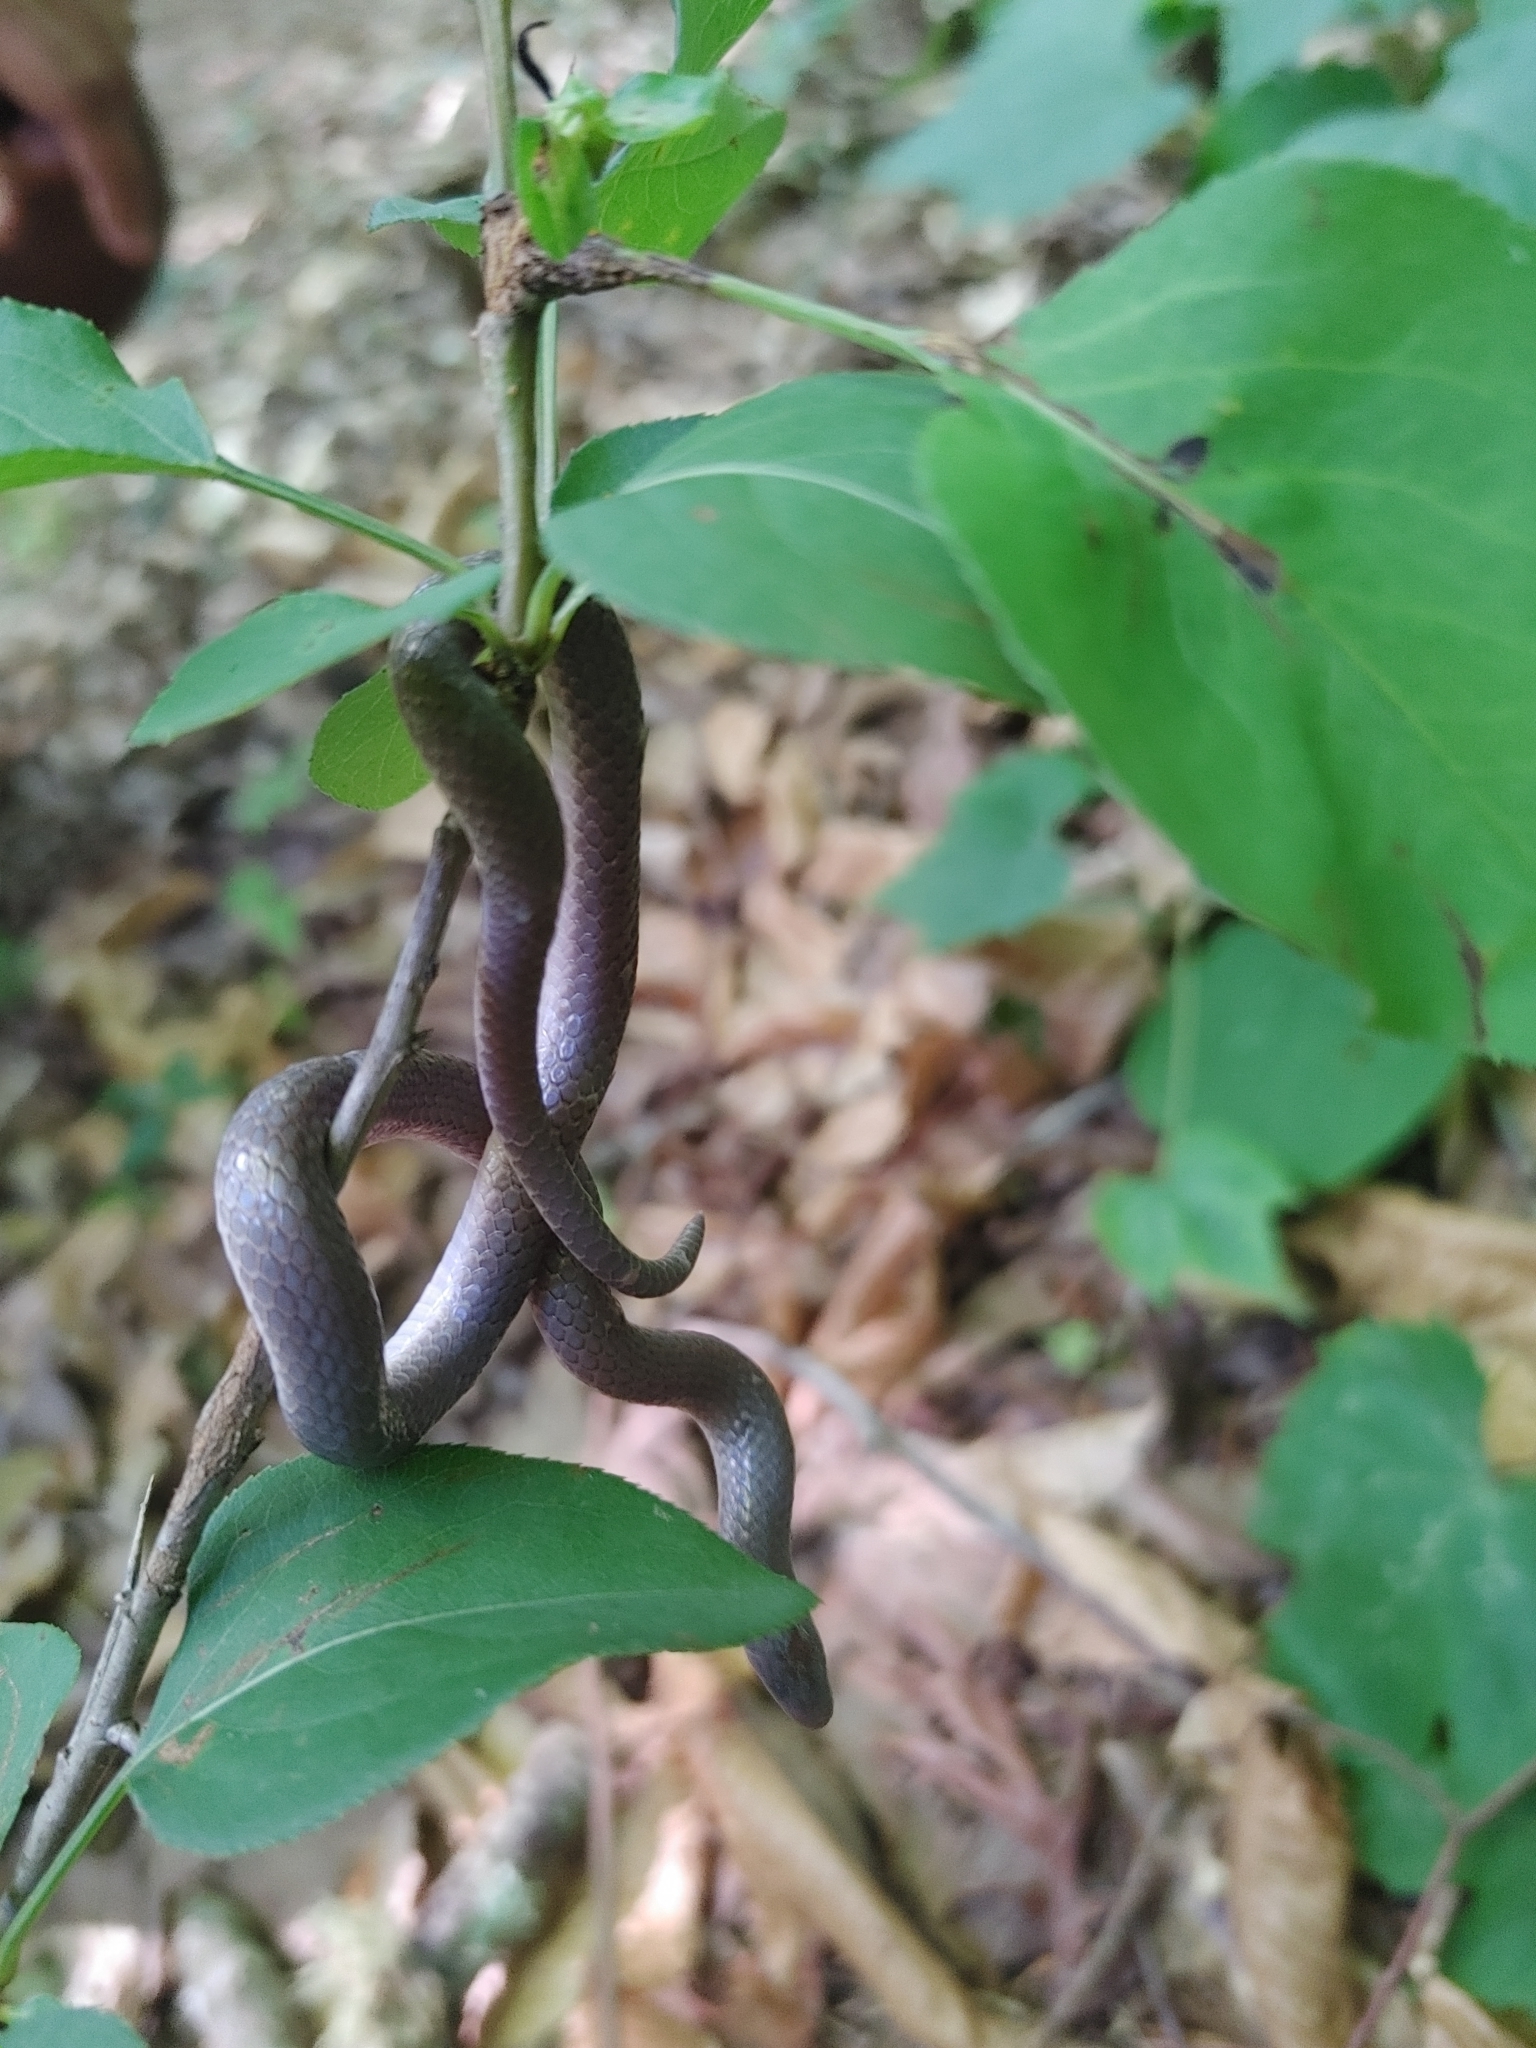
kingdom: Animalia
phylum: Chordata
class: Squamata
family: Colubridae
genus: Carphophis
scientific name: Carphophis amoenus
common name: Eastern worm snake
